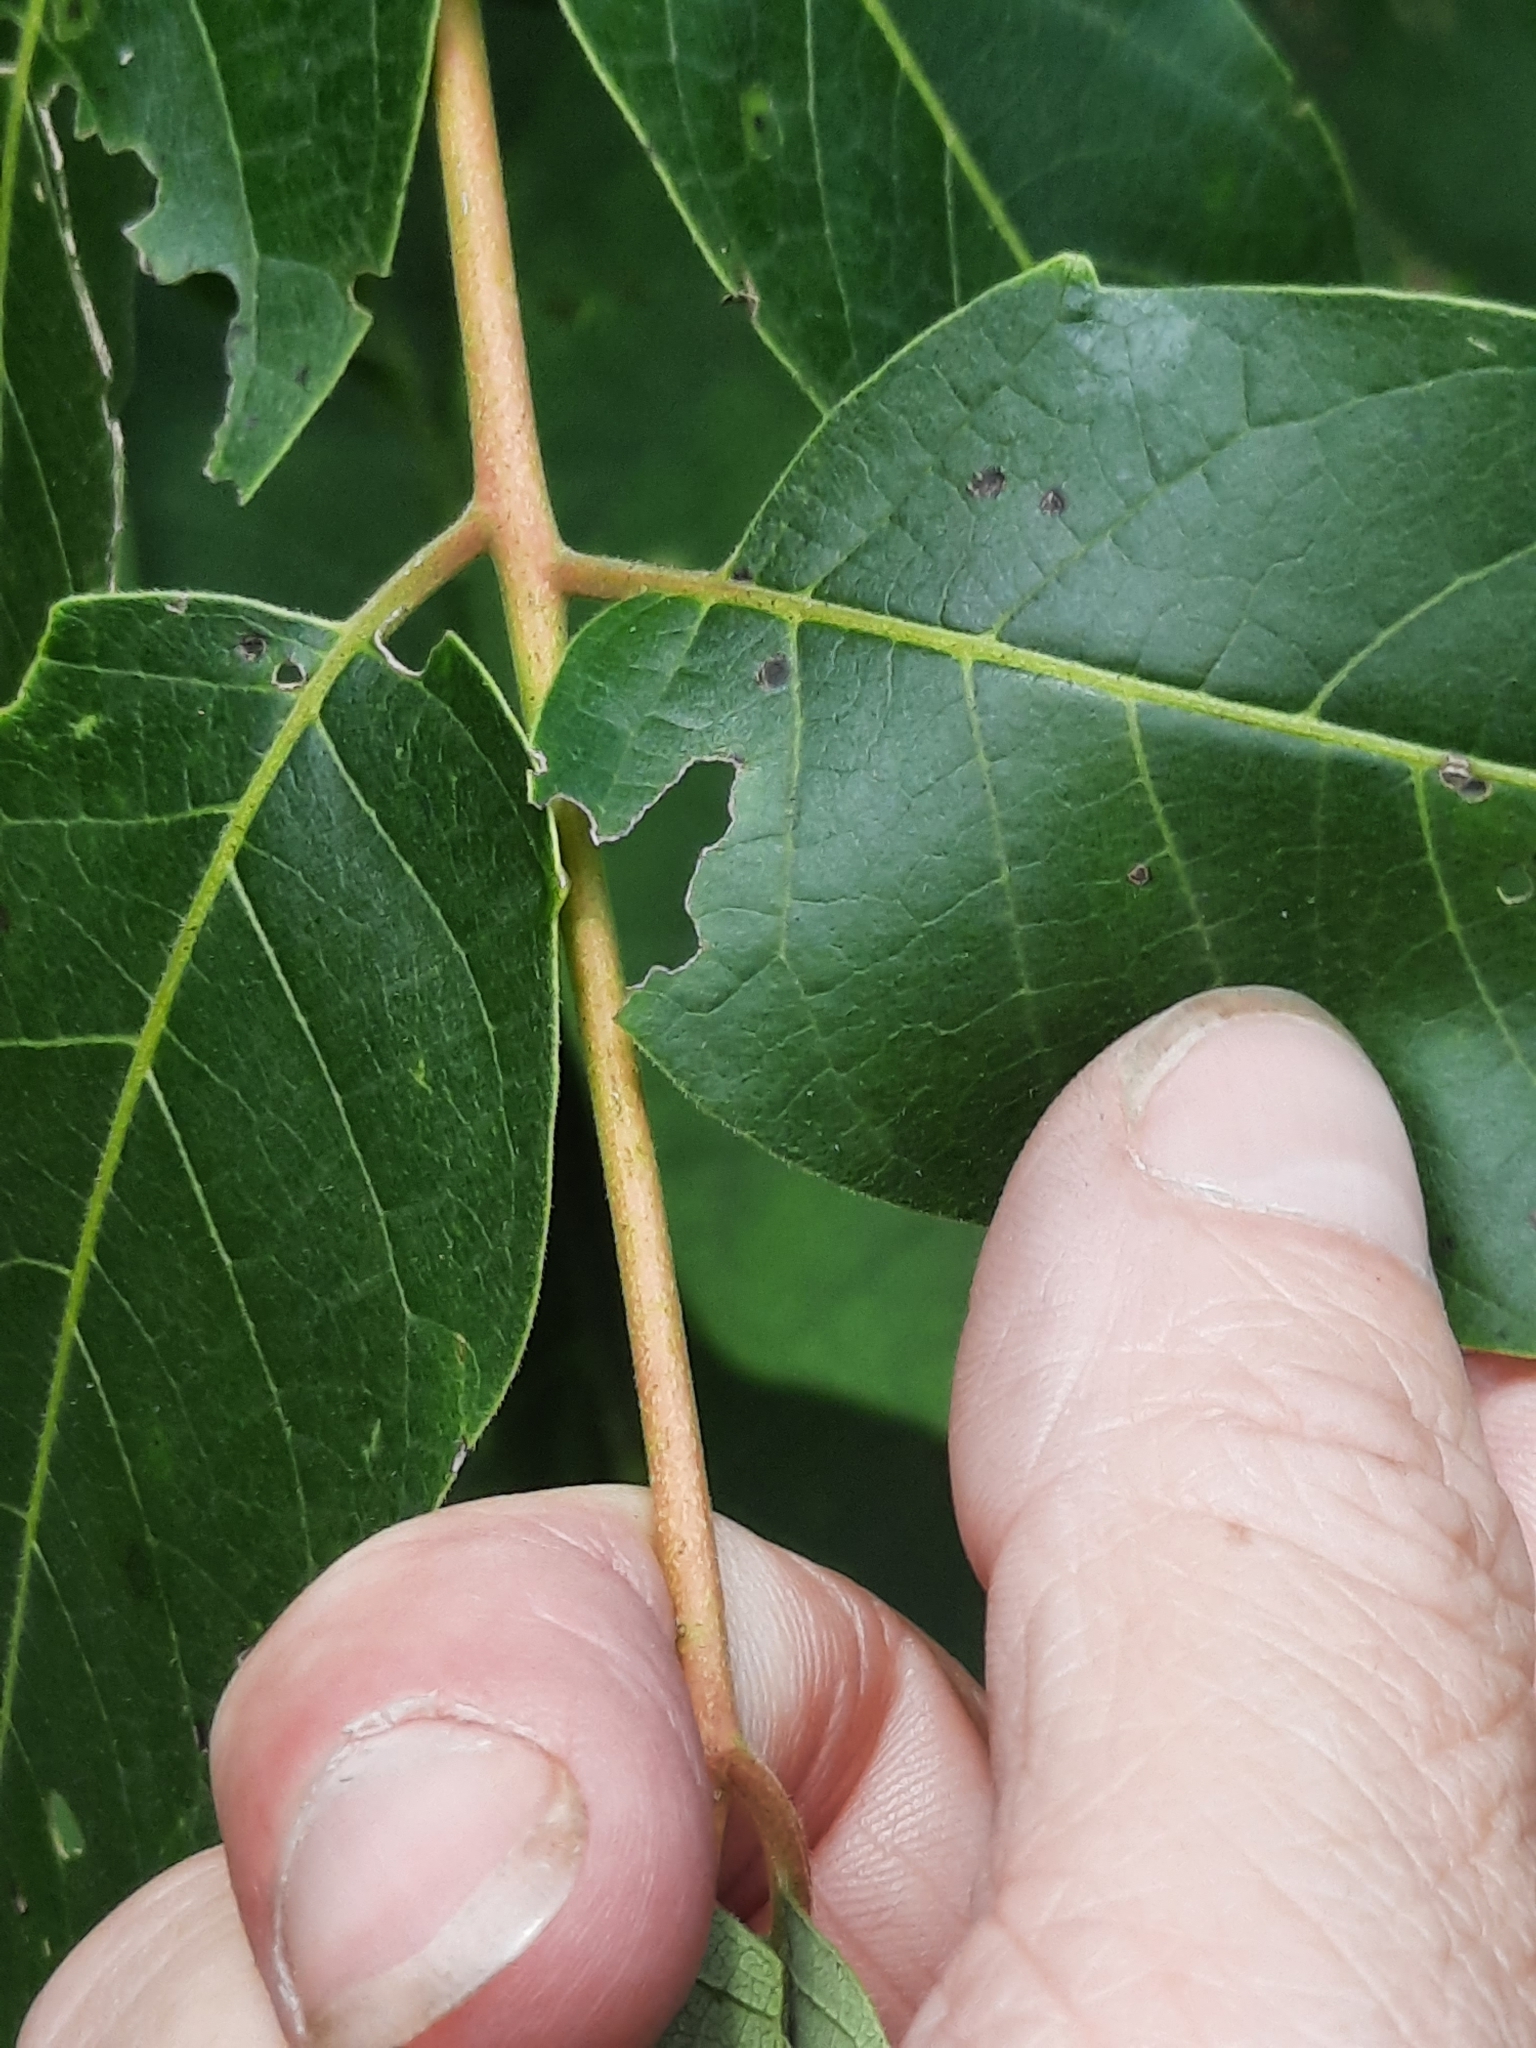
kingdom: Plantae
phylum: Tracheophyta
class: Magnoliopsida
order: Sapindales
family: Simaroubaceae
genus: Ailanthus
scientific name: Ailanthus altissima
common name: Tree-of-heaven
